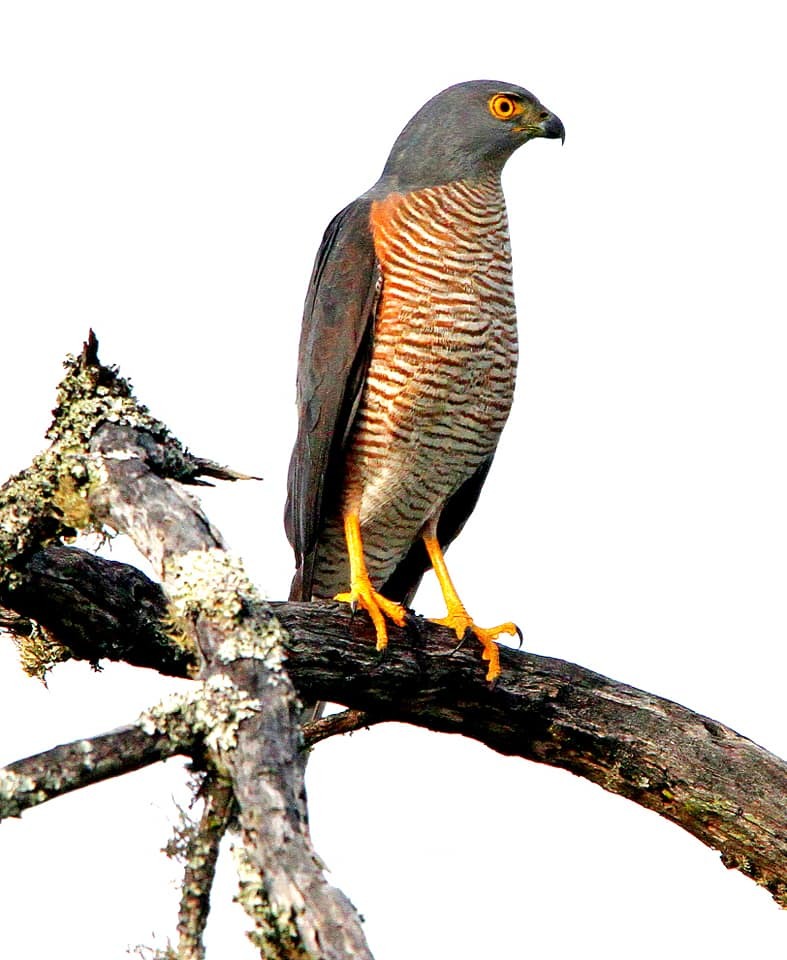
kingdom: Animalia
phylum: Chordata
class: Aves
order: Accipitriformes
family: Accipitridae
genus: Accipiter
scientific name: Accipiter tachiro
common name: African goshawk
